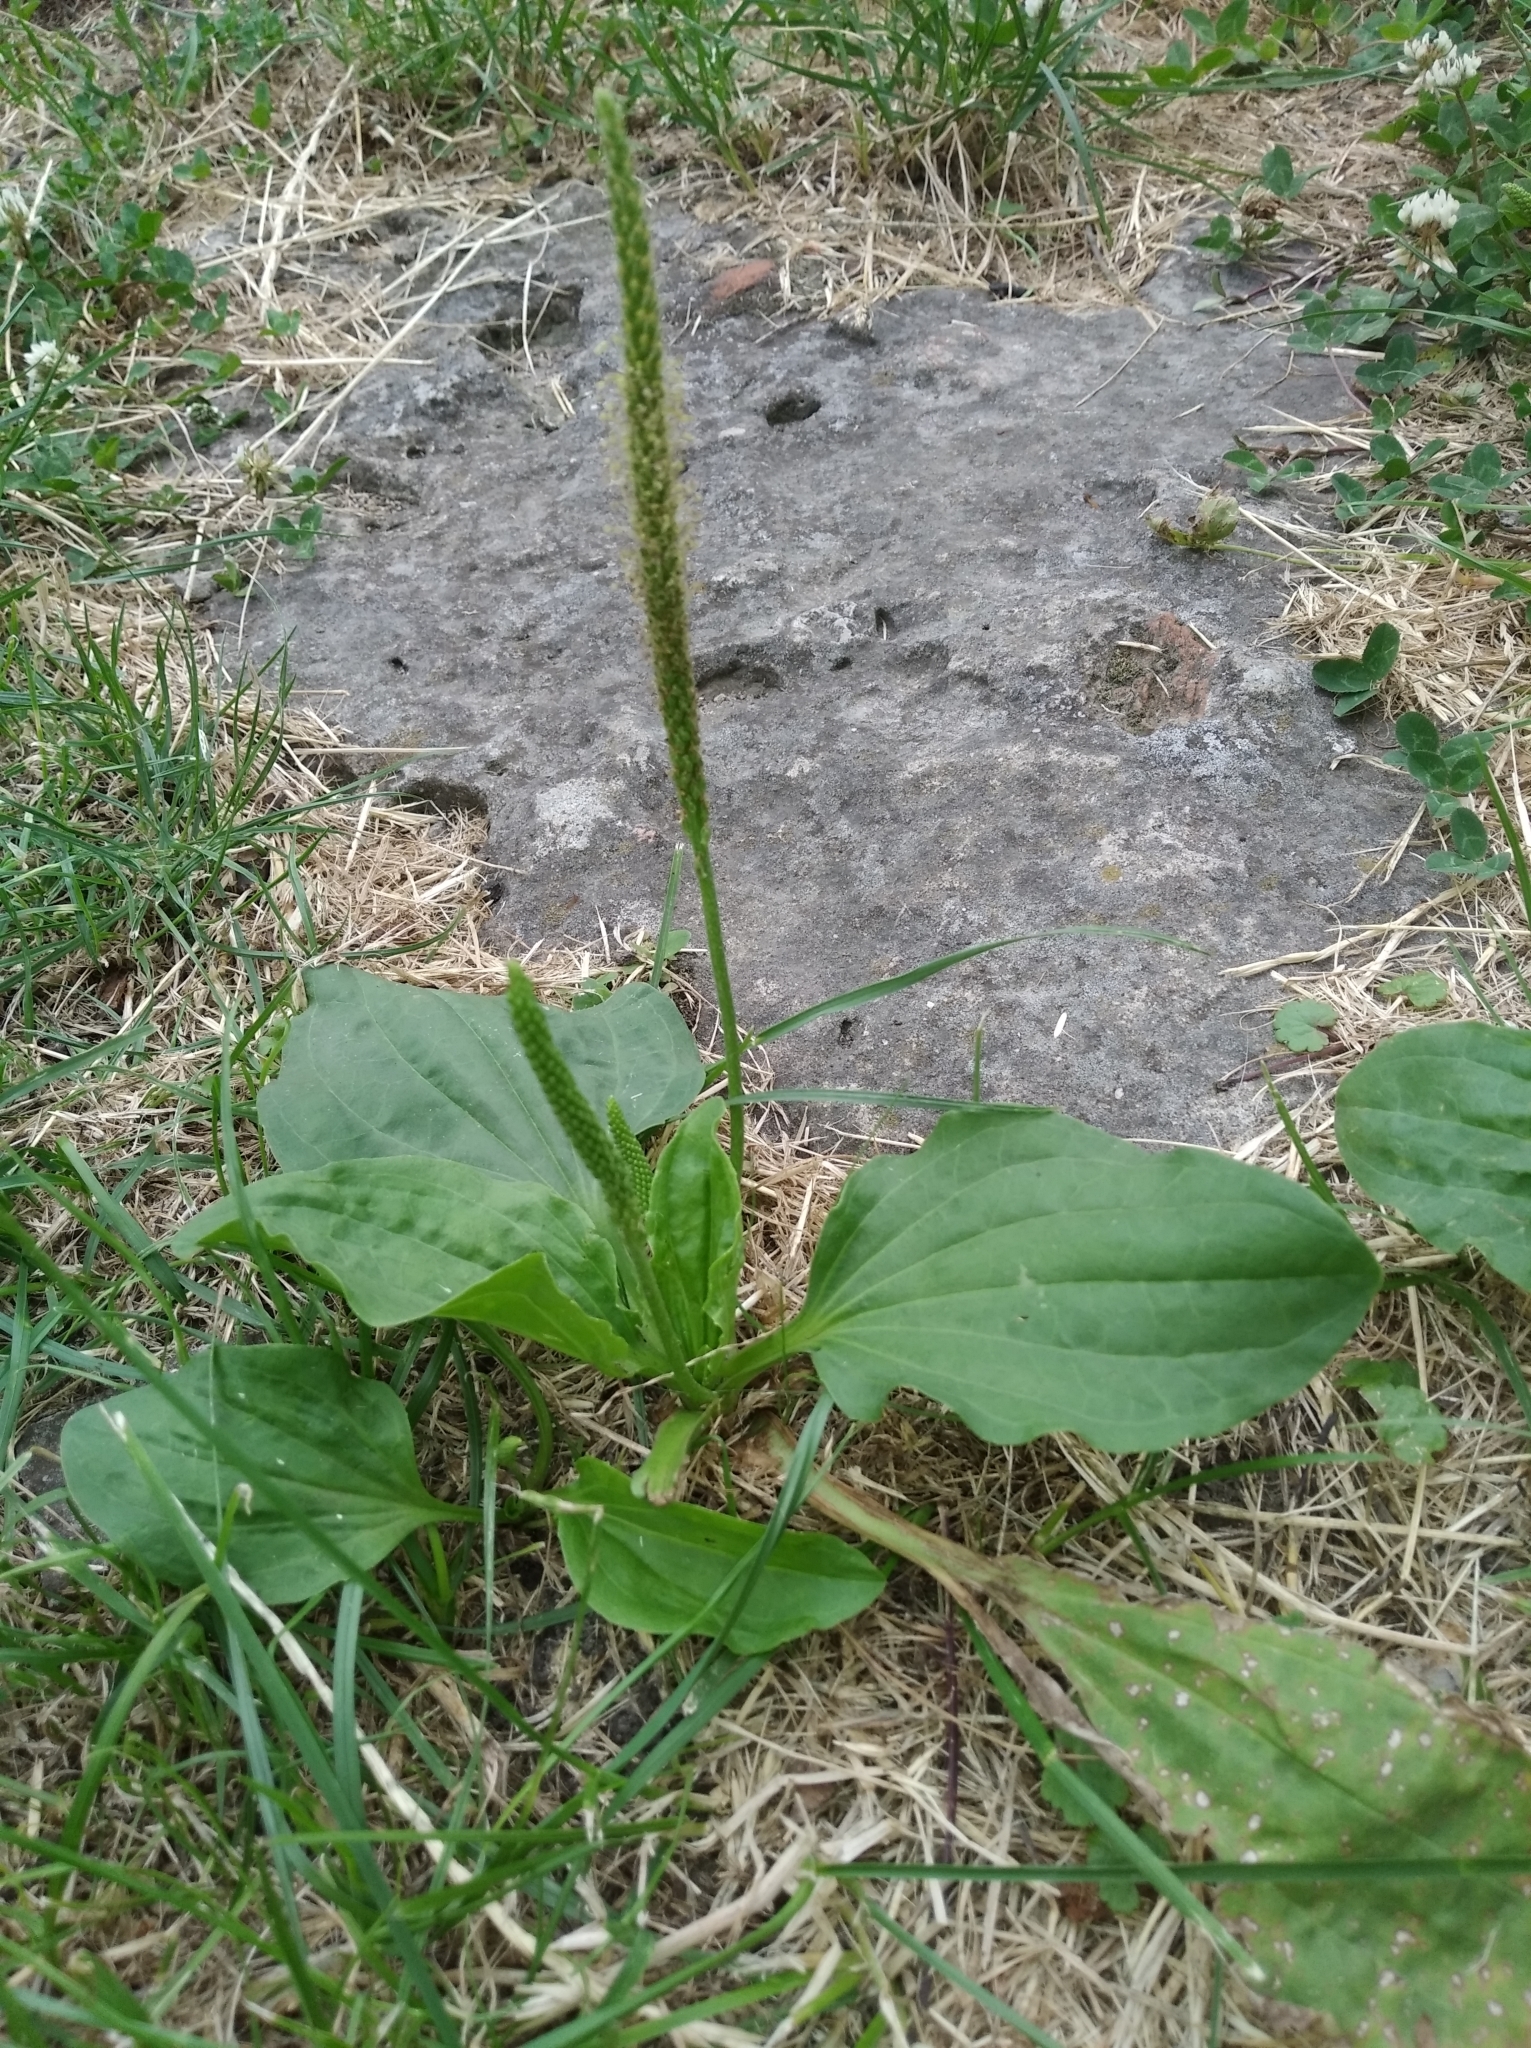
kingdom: Plantae
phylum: Tracheophyta
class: Magnoliopsida
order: Lamiales
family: Plantaginaceae
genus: Plantago
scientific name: Plantago major
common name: Common plantain
